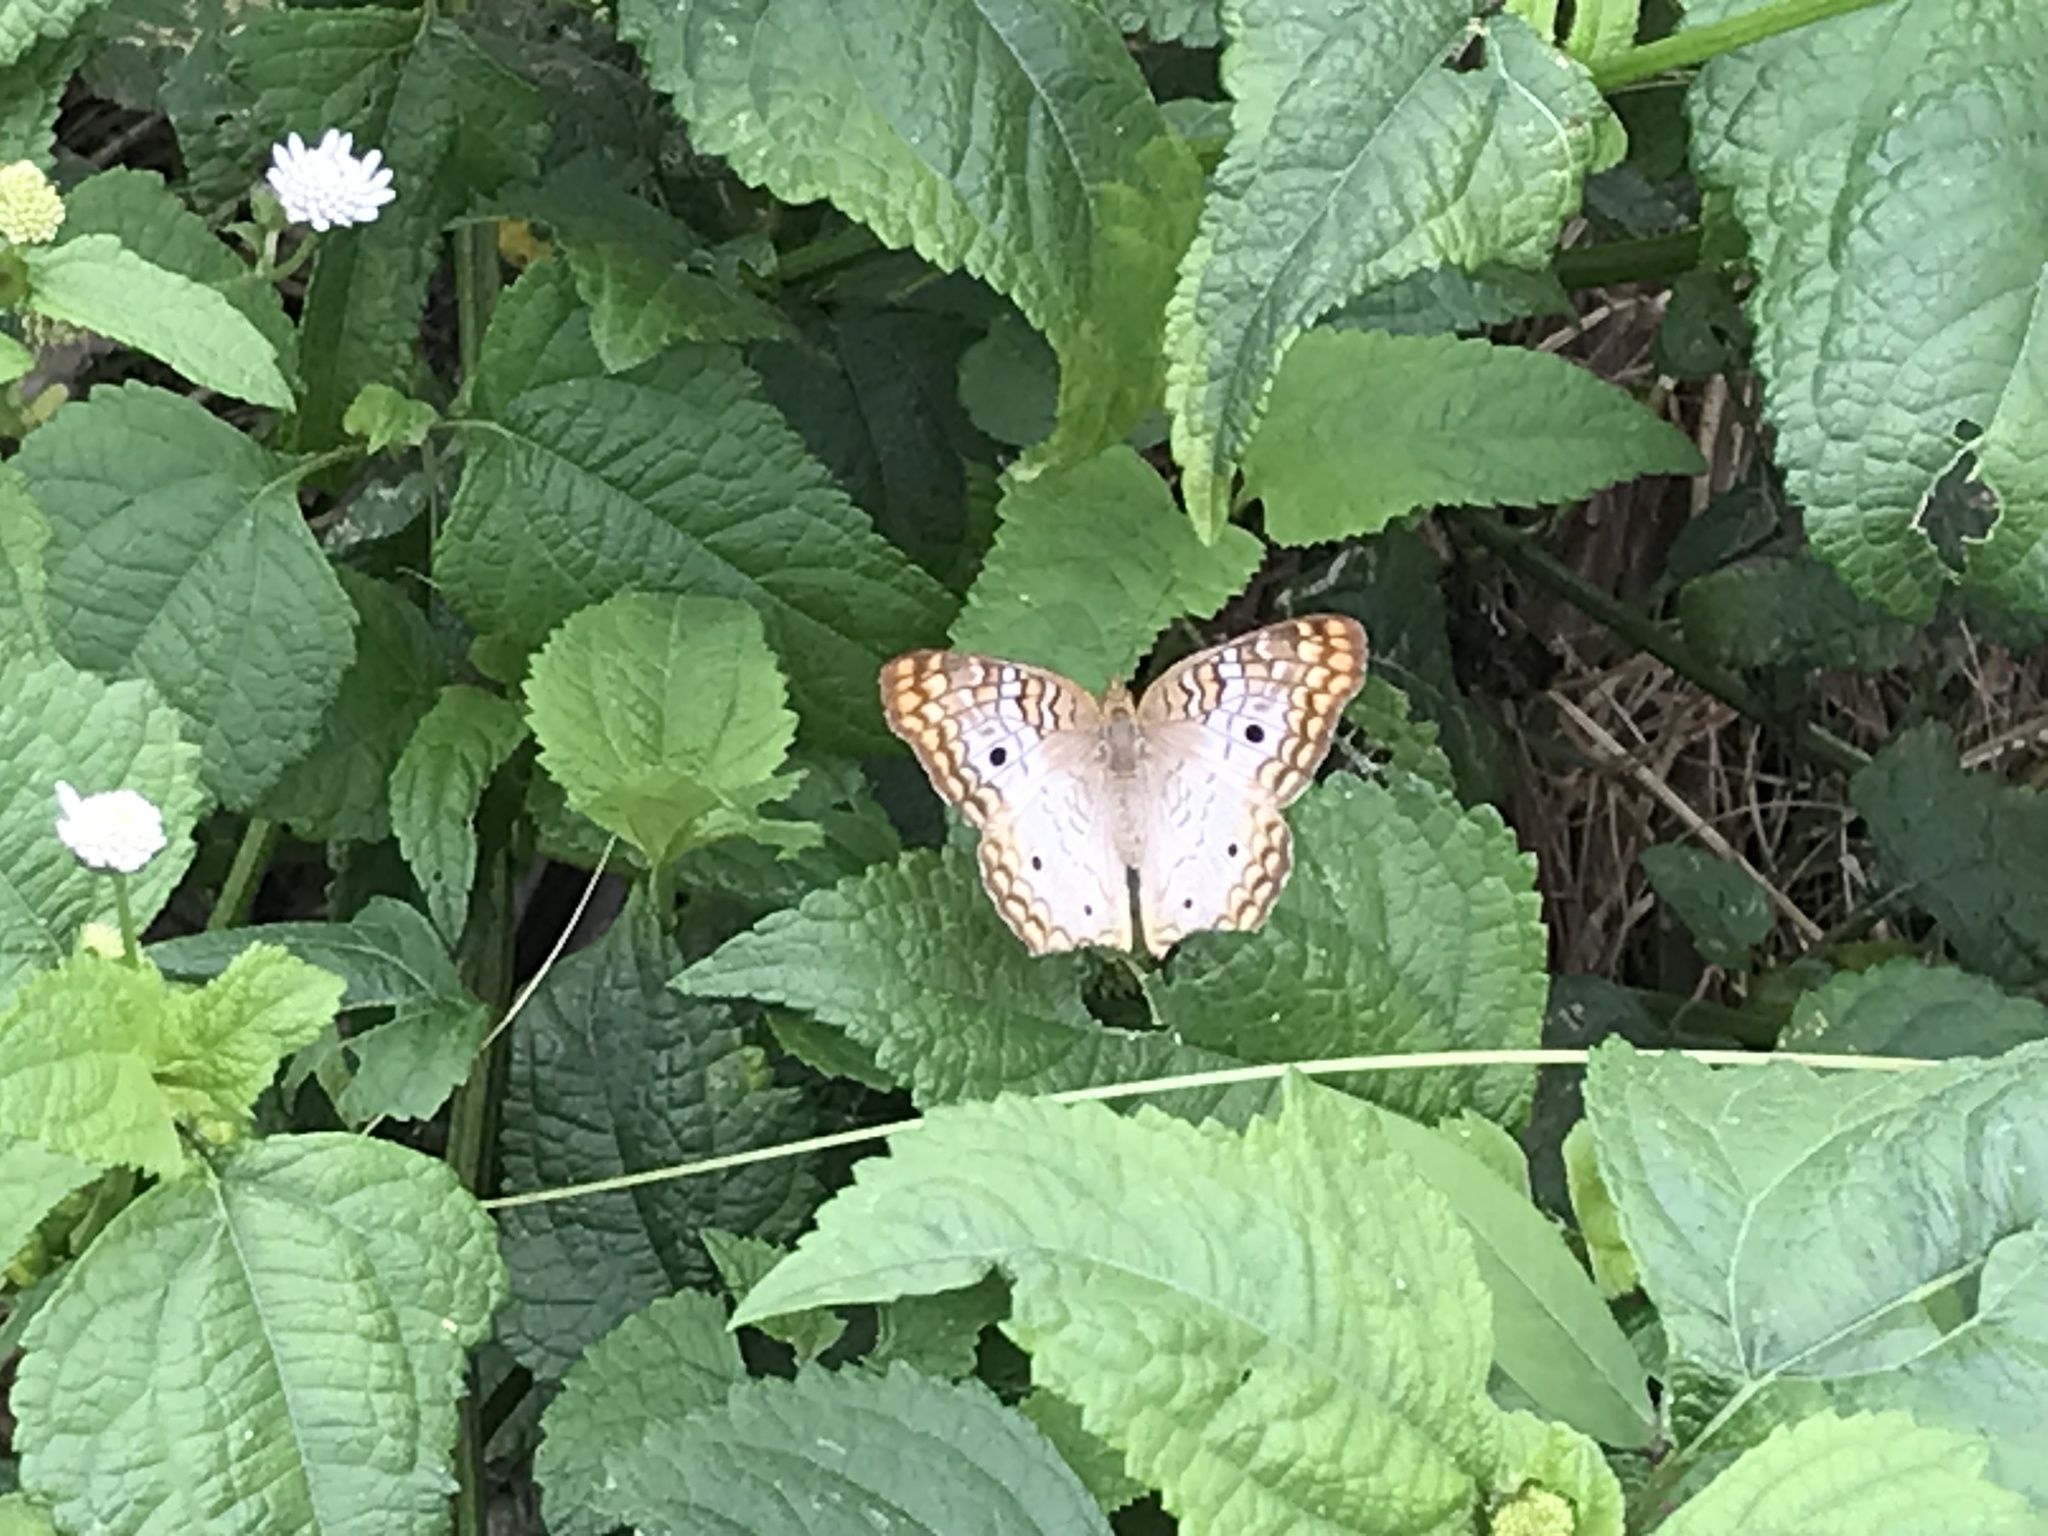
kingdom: Animalia
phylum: Arthropoda
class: Insecta
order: Lepidoptera
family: Nymphalidae
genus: Anartia
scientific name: Anartia jatrophae
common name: White peacock
